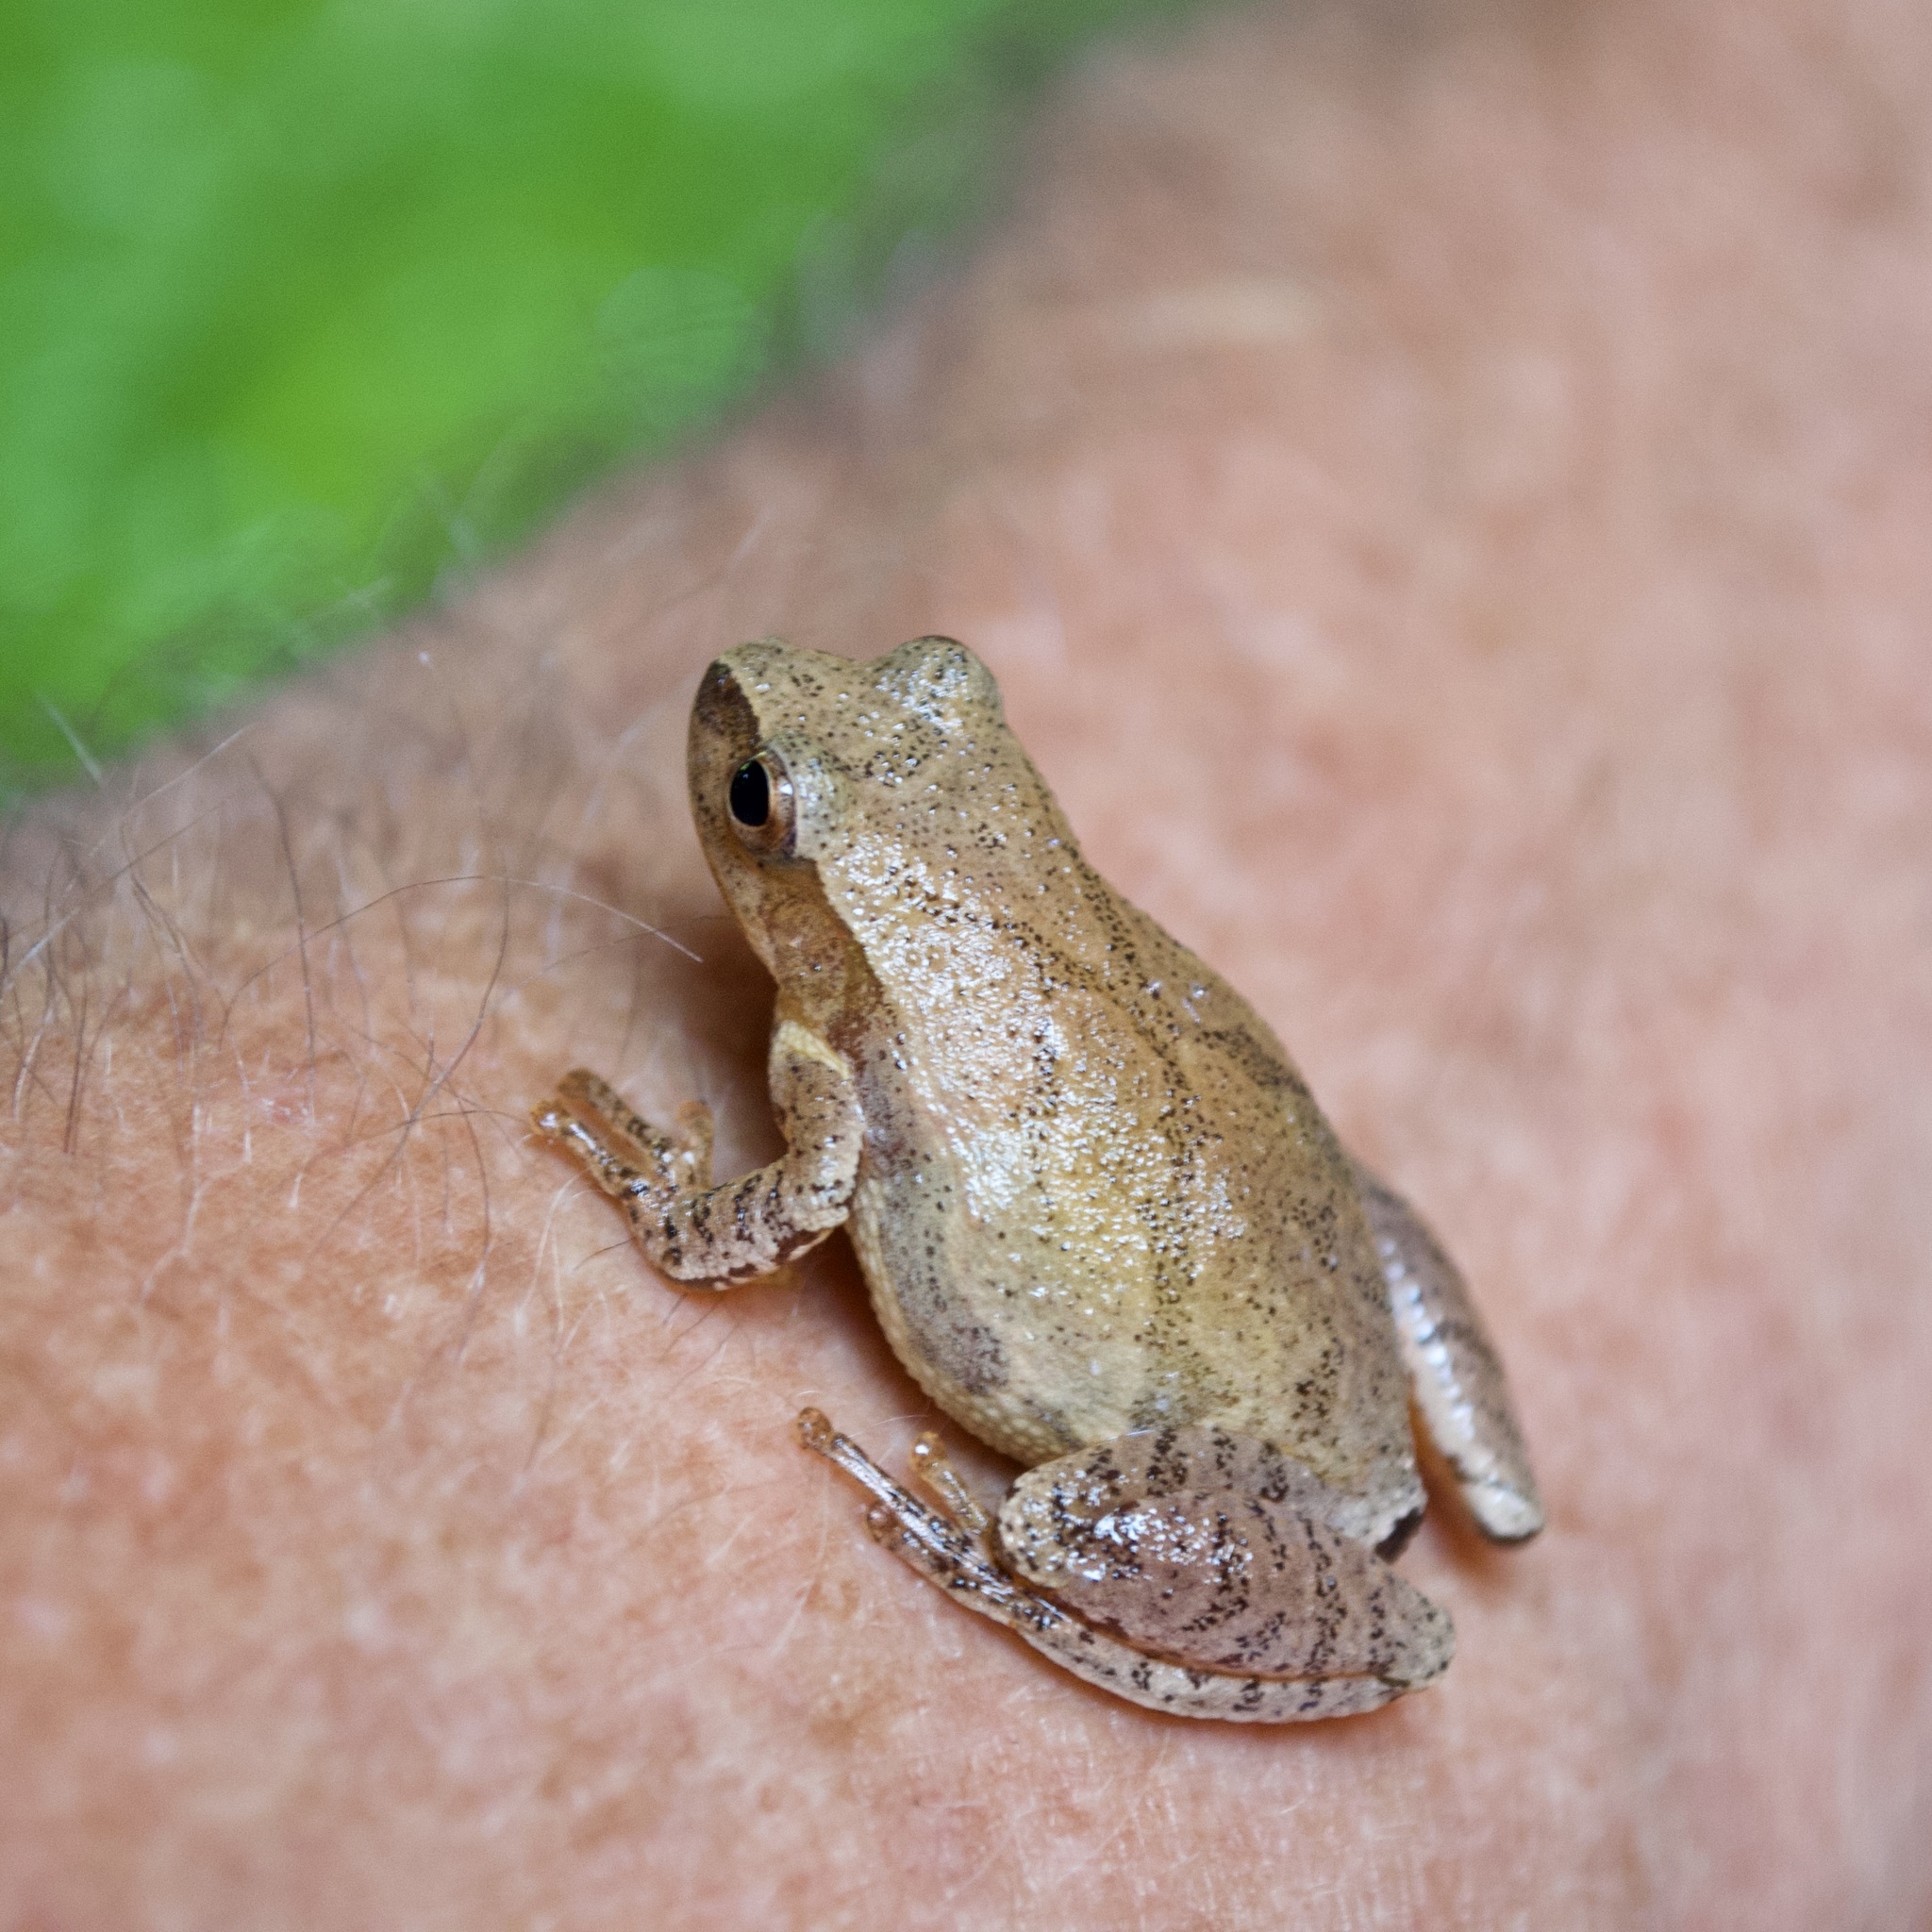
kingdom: Animalia
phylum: Chordata
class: Amphibia
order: Anura
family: Hylidae
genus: Pseudacris
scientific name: Pseudacris crucifer
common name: Spring peeper
